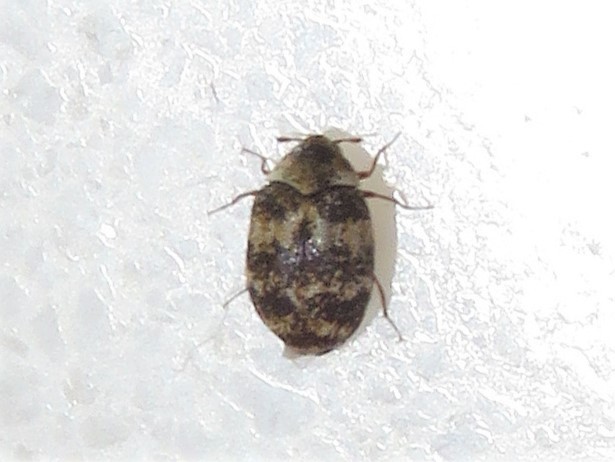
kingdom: Animalia
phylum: Arthropoda
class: Insecta
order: Coleoptera
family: Dermestidae
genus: Anthrenus
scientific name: Anthrenus fuscus
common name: Mill carpet beetle
